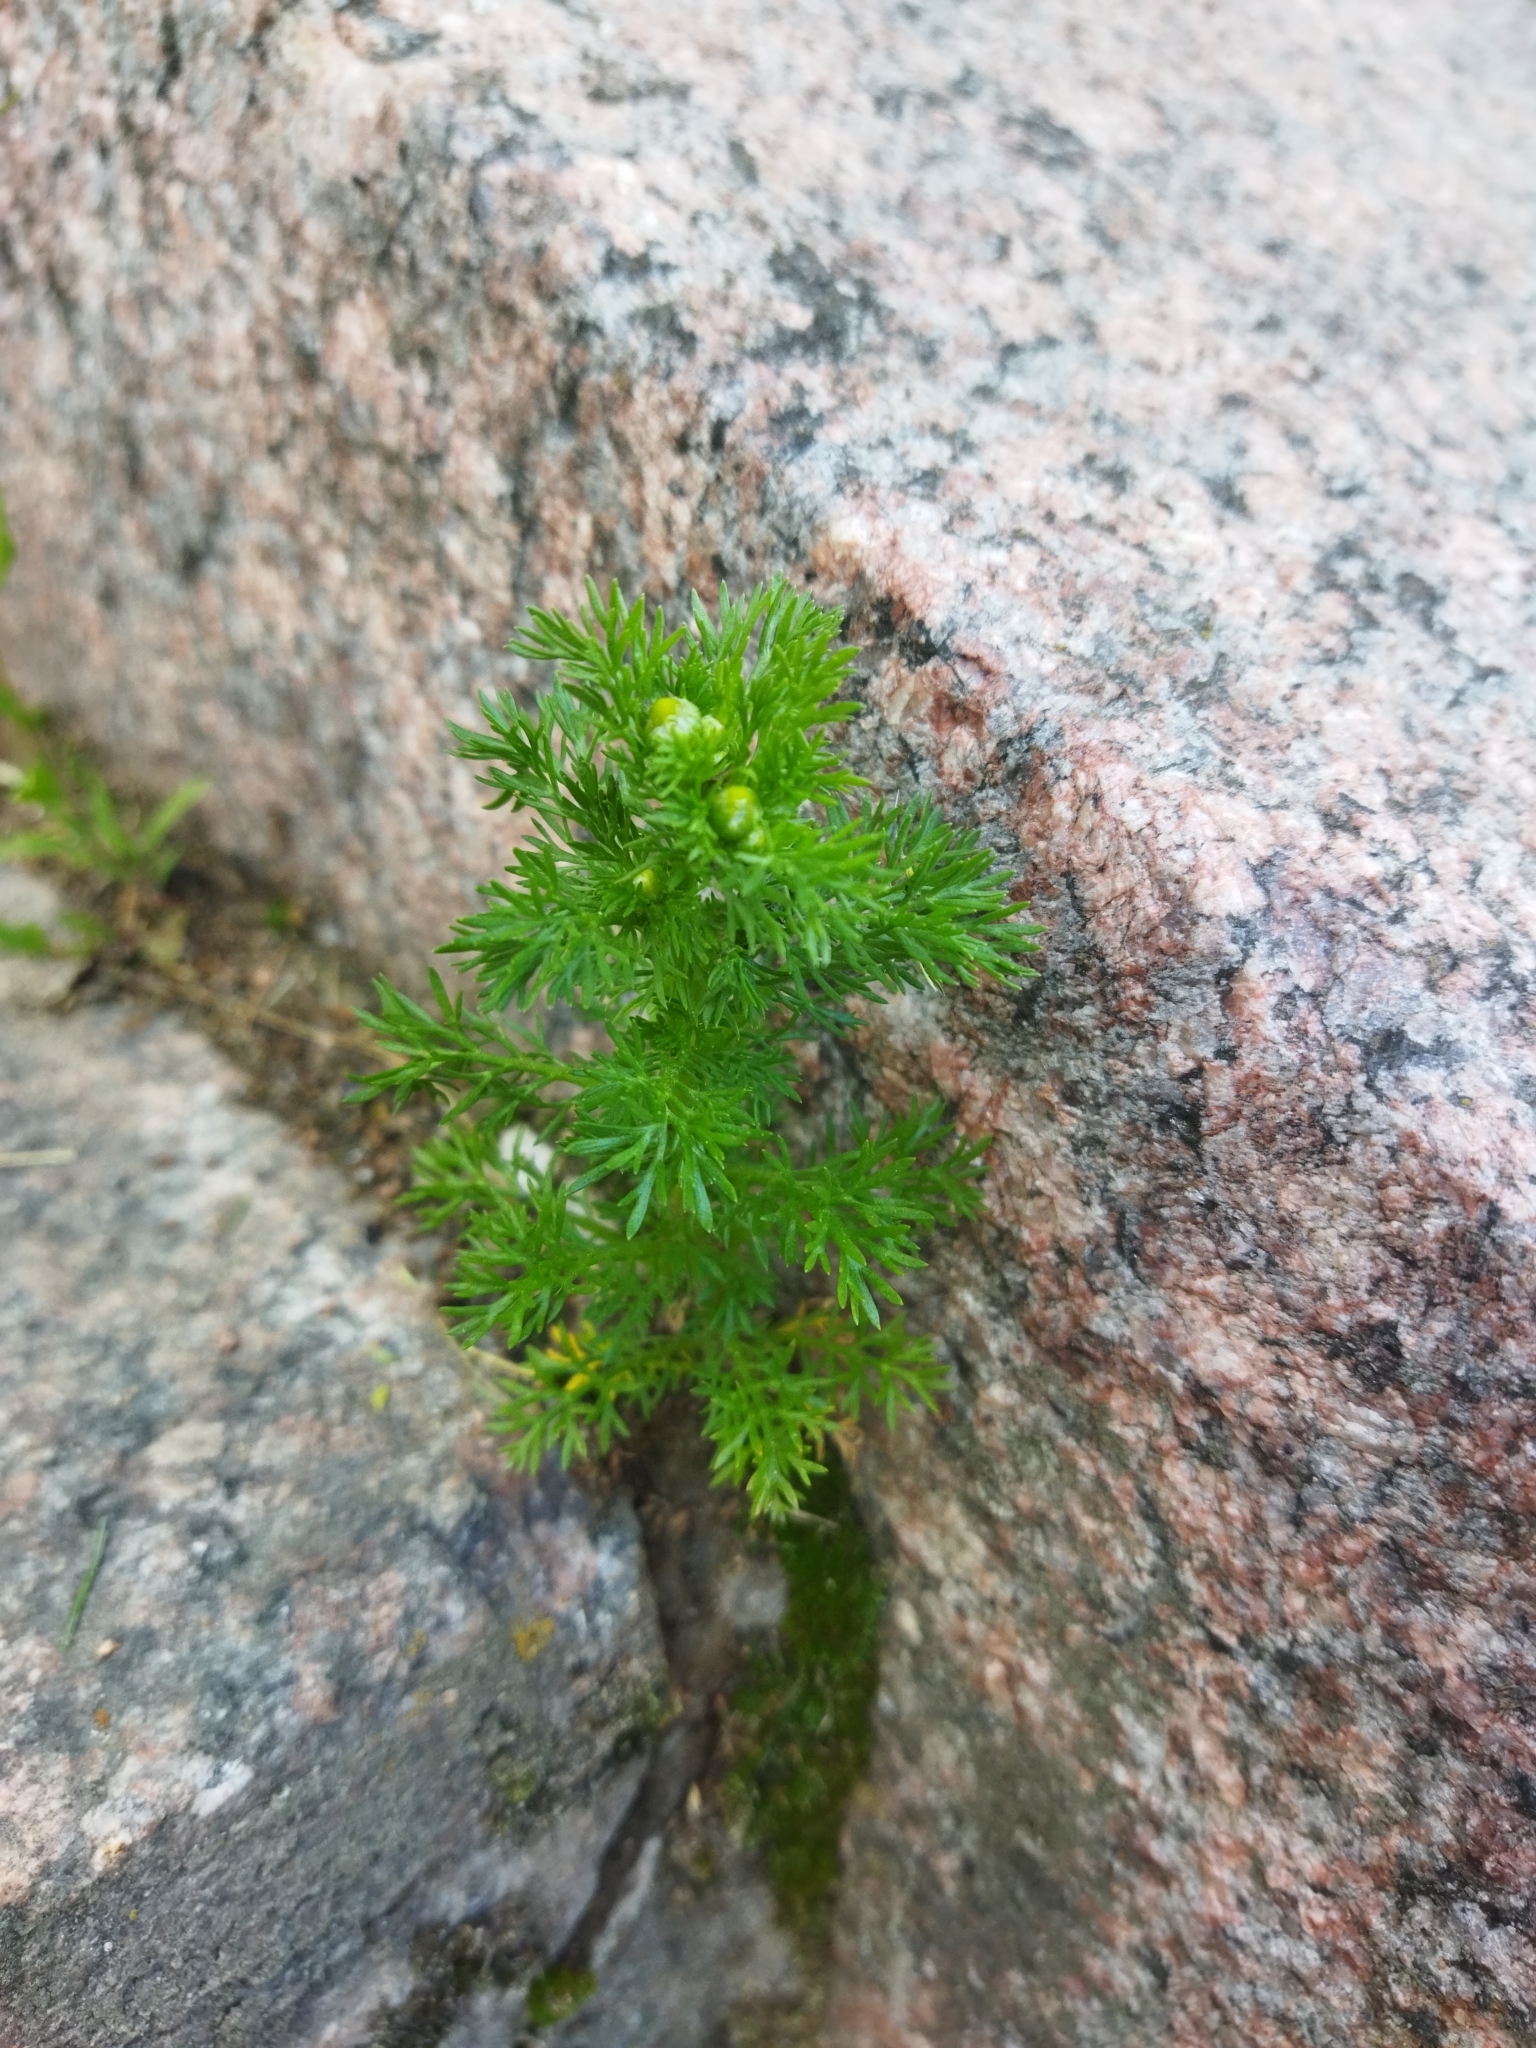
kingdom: Plantae
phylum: Tracheophyta
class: Magnoliopsida
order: Asterales
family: Asteraceae
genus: Matricaria
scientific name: Matricaria discoidea
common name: Disc mayweed
